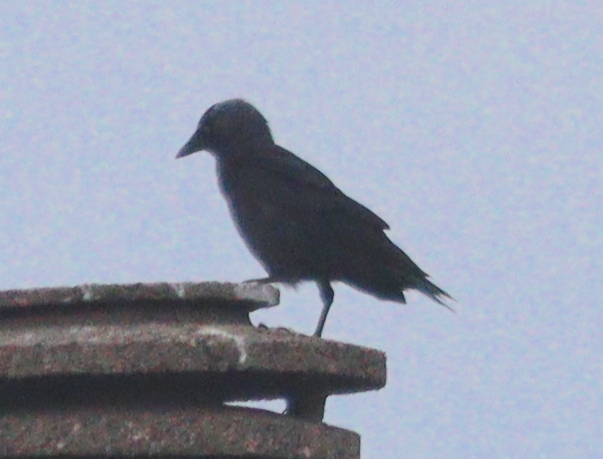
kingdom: Animalia
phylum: Chordata
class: Aves
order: Passeriformes
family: Corvidae
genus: Coloeus
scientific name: Coloeus monedula
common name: Western jackdaw
